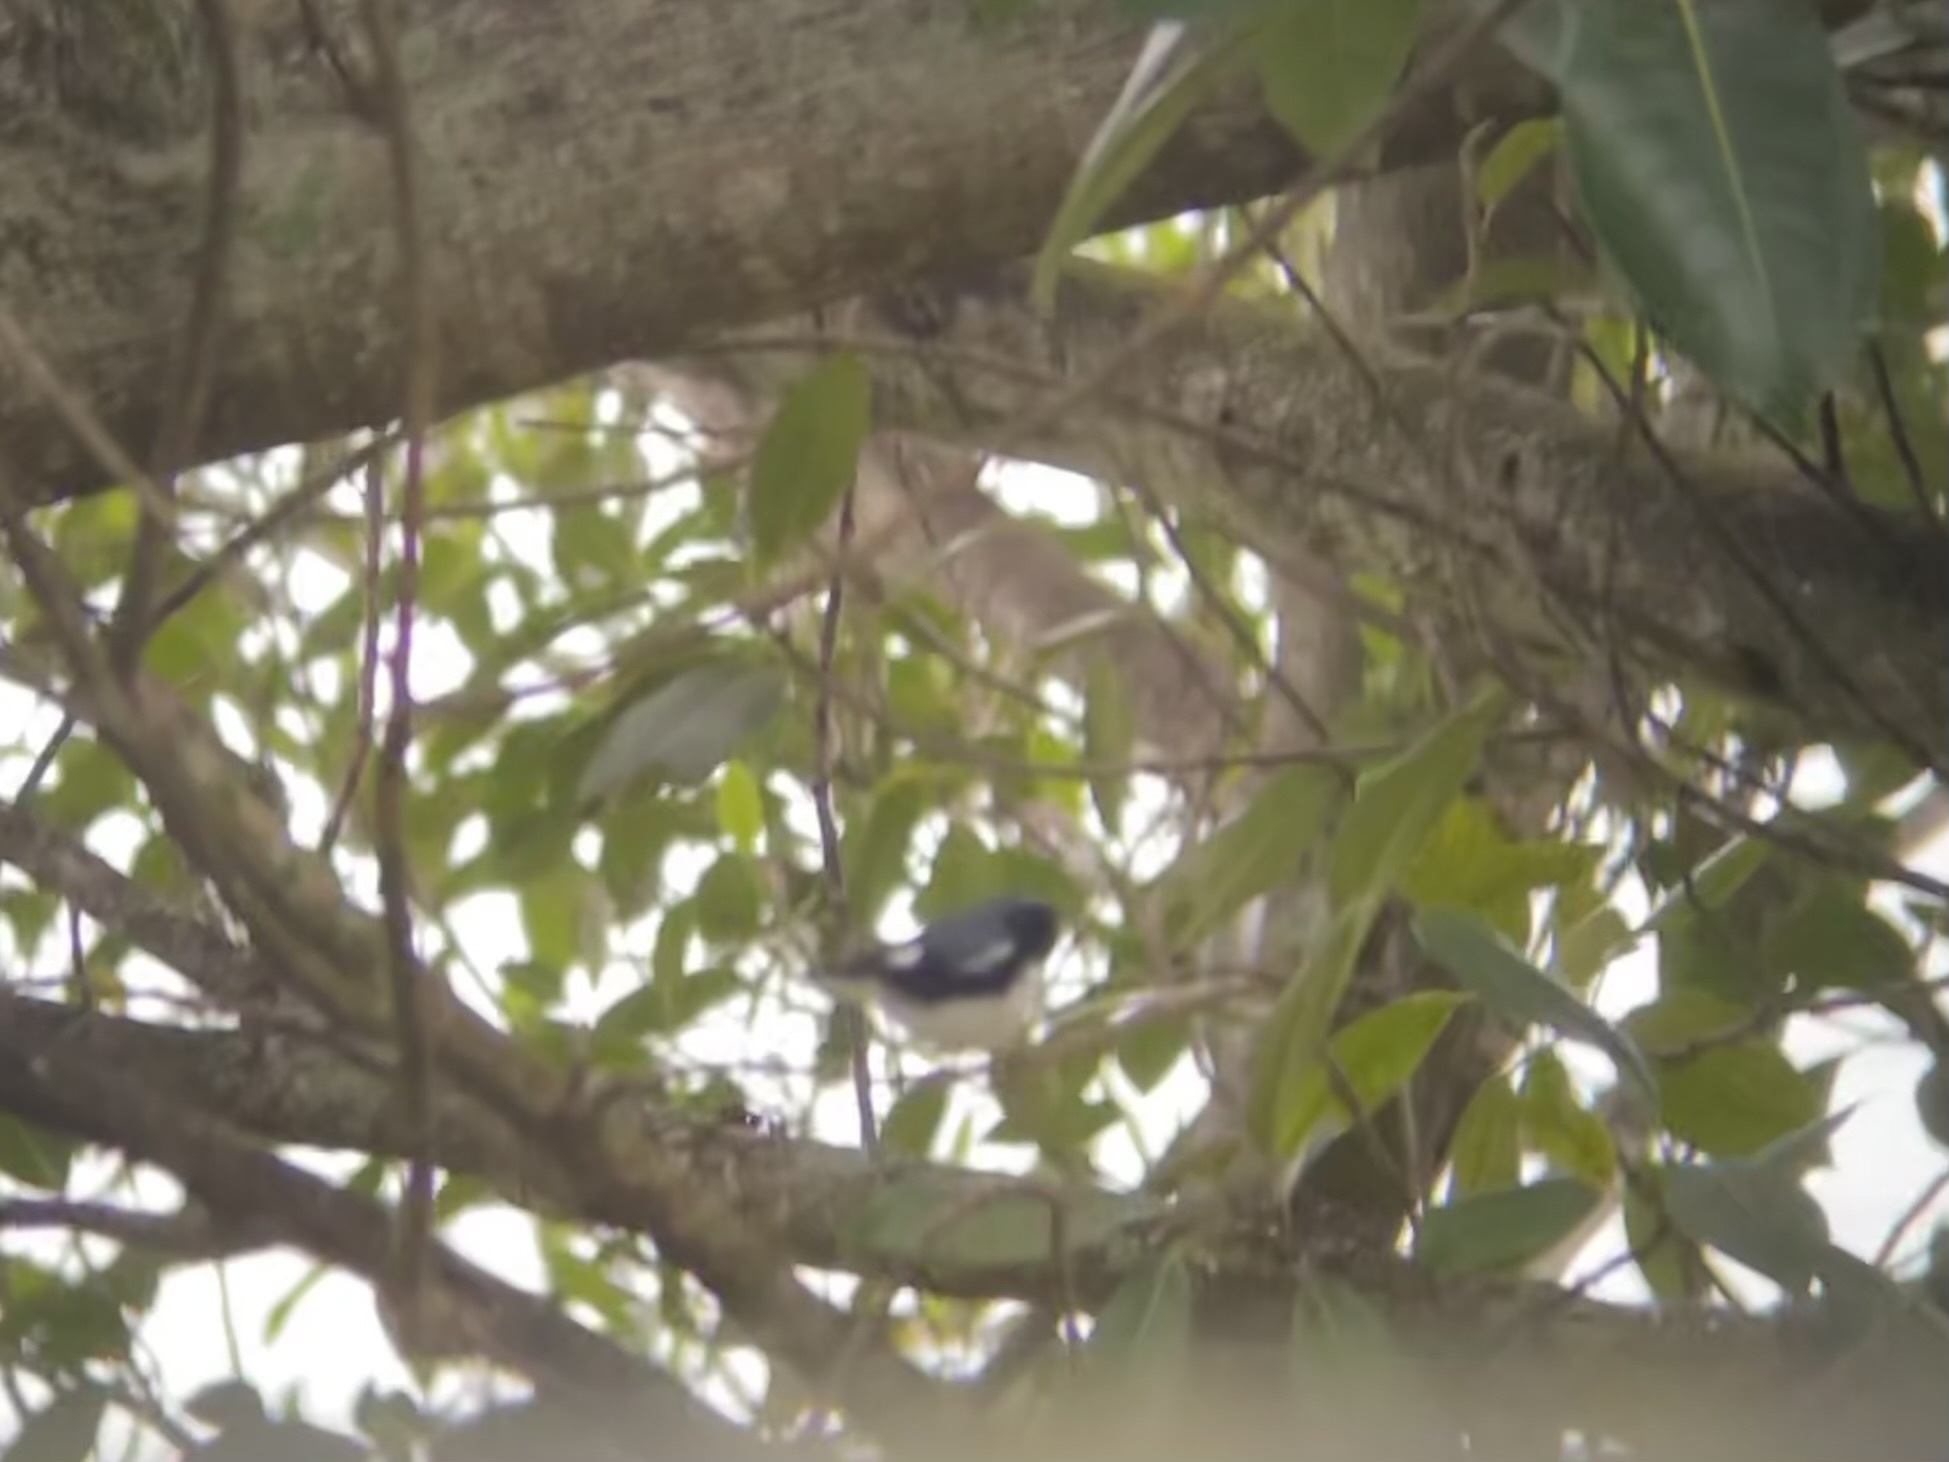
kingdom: Animalia
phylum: Chordata
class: Aves
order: Passeriformes
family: Parulidae
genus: Setophaga
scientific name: Setophaga caerulescens
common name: Black-throated blue warbler
